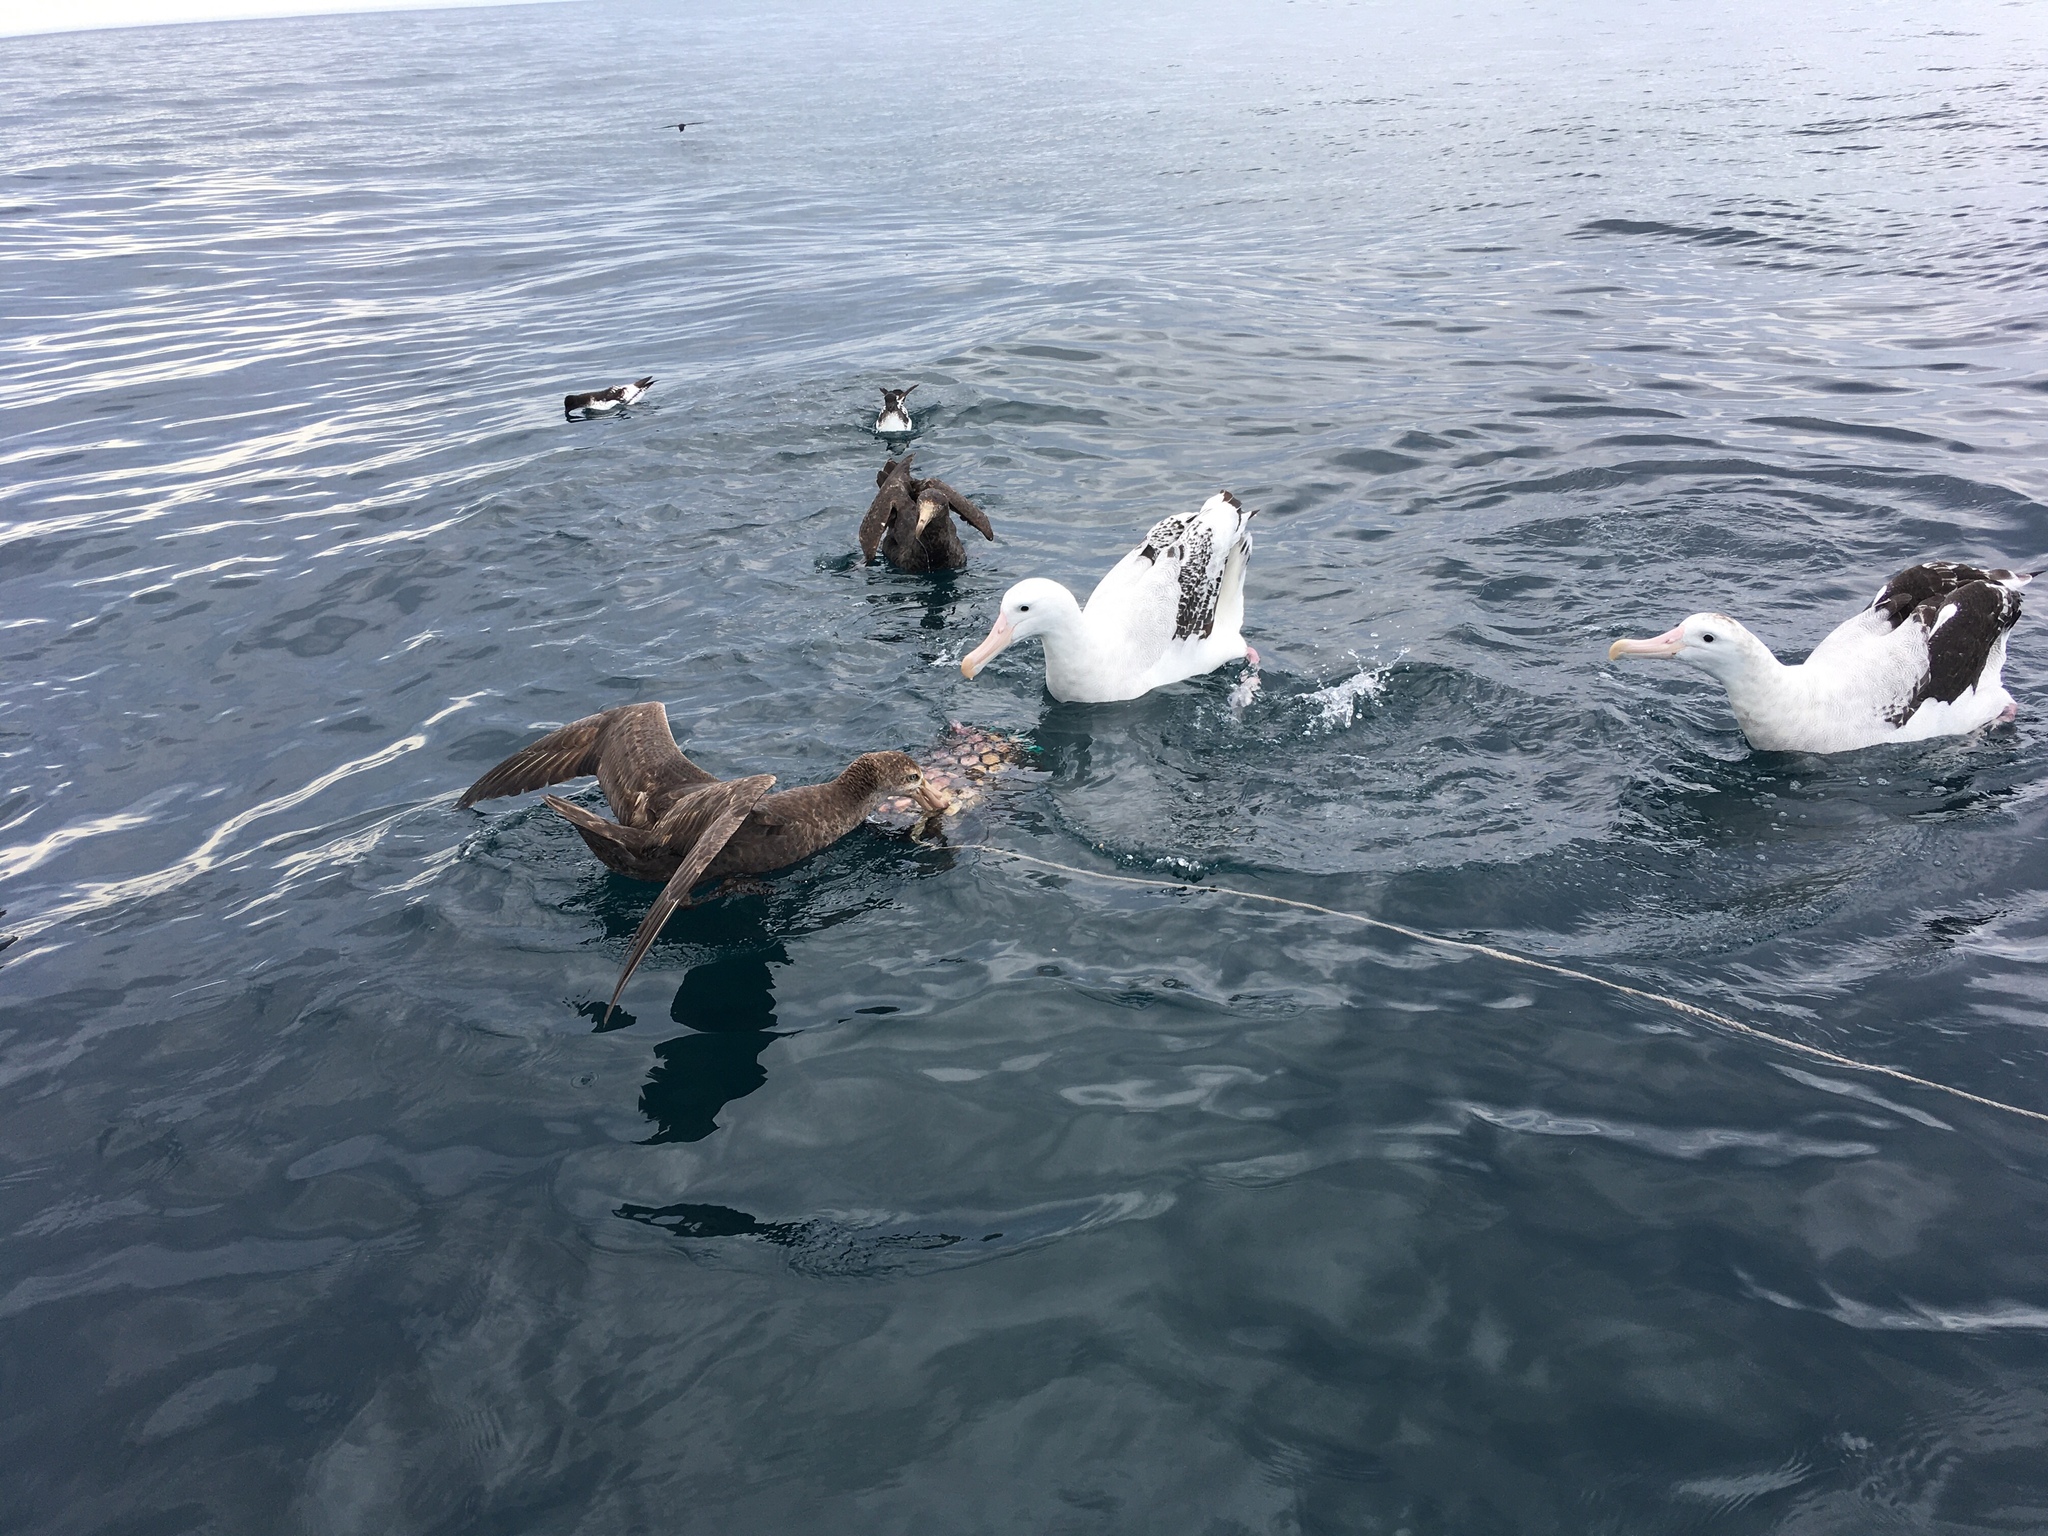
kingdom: Animalia
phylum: Chordata
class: Aves
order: Procellariiformes
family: Procellariidae
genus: Macronectes
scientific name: Macronectes halli
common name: Northern giant petrel
